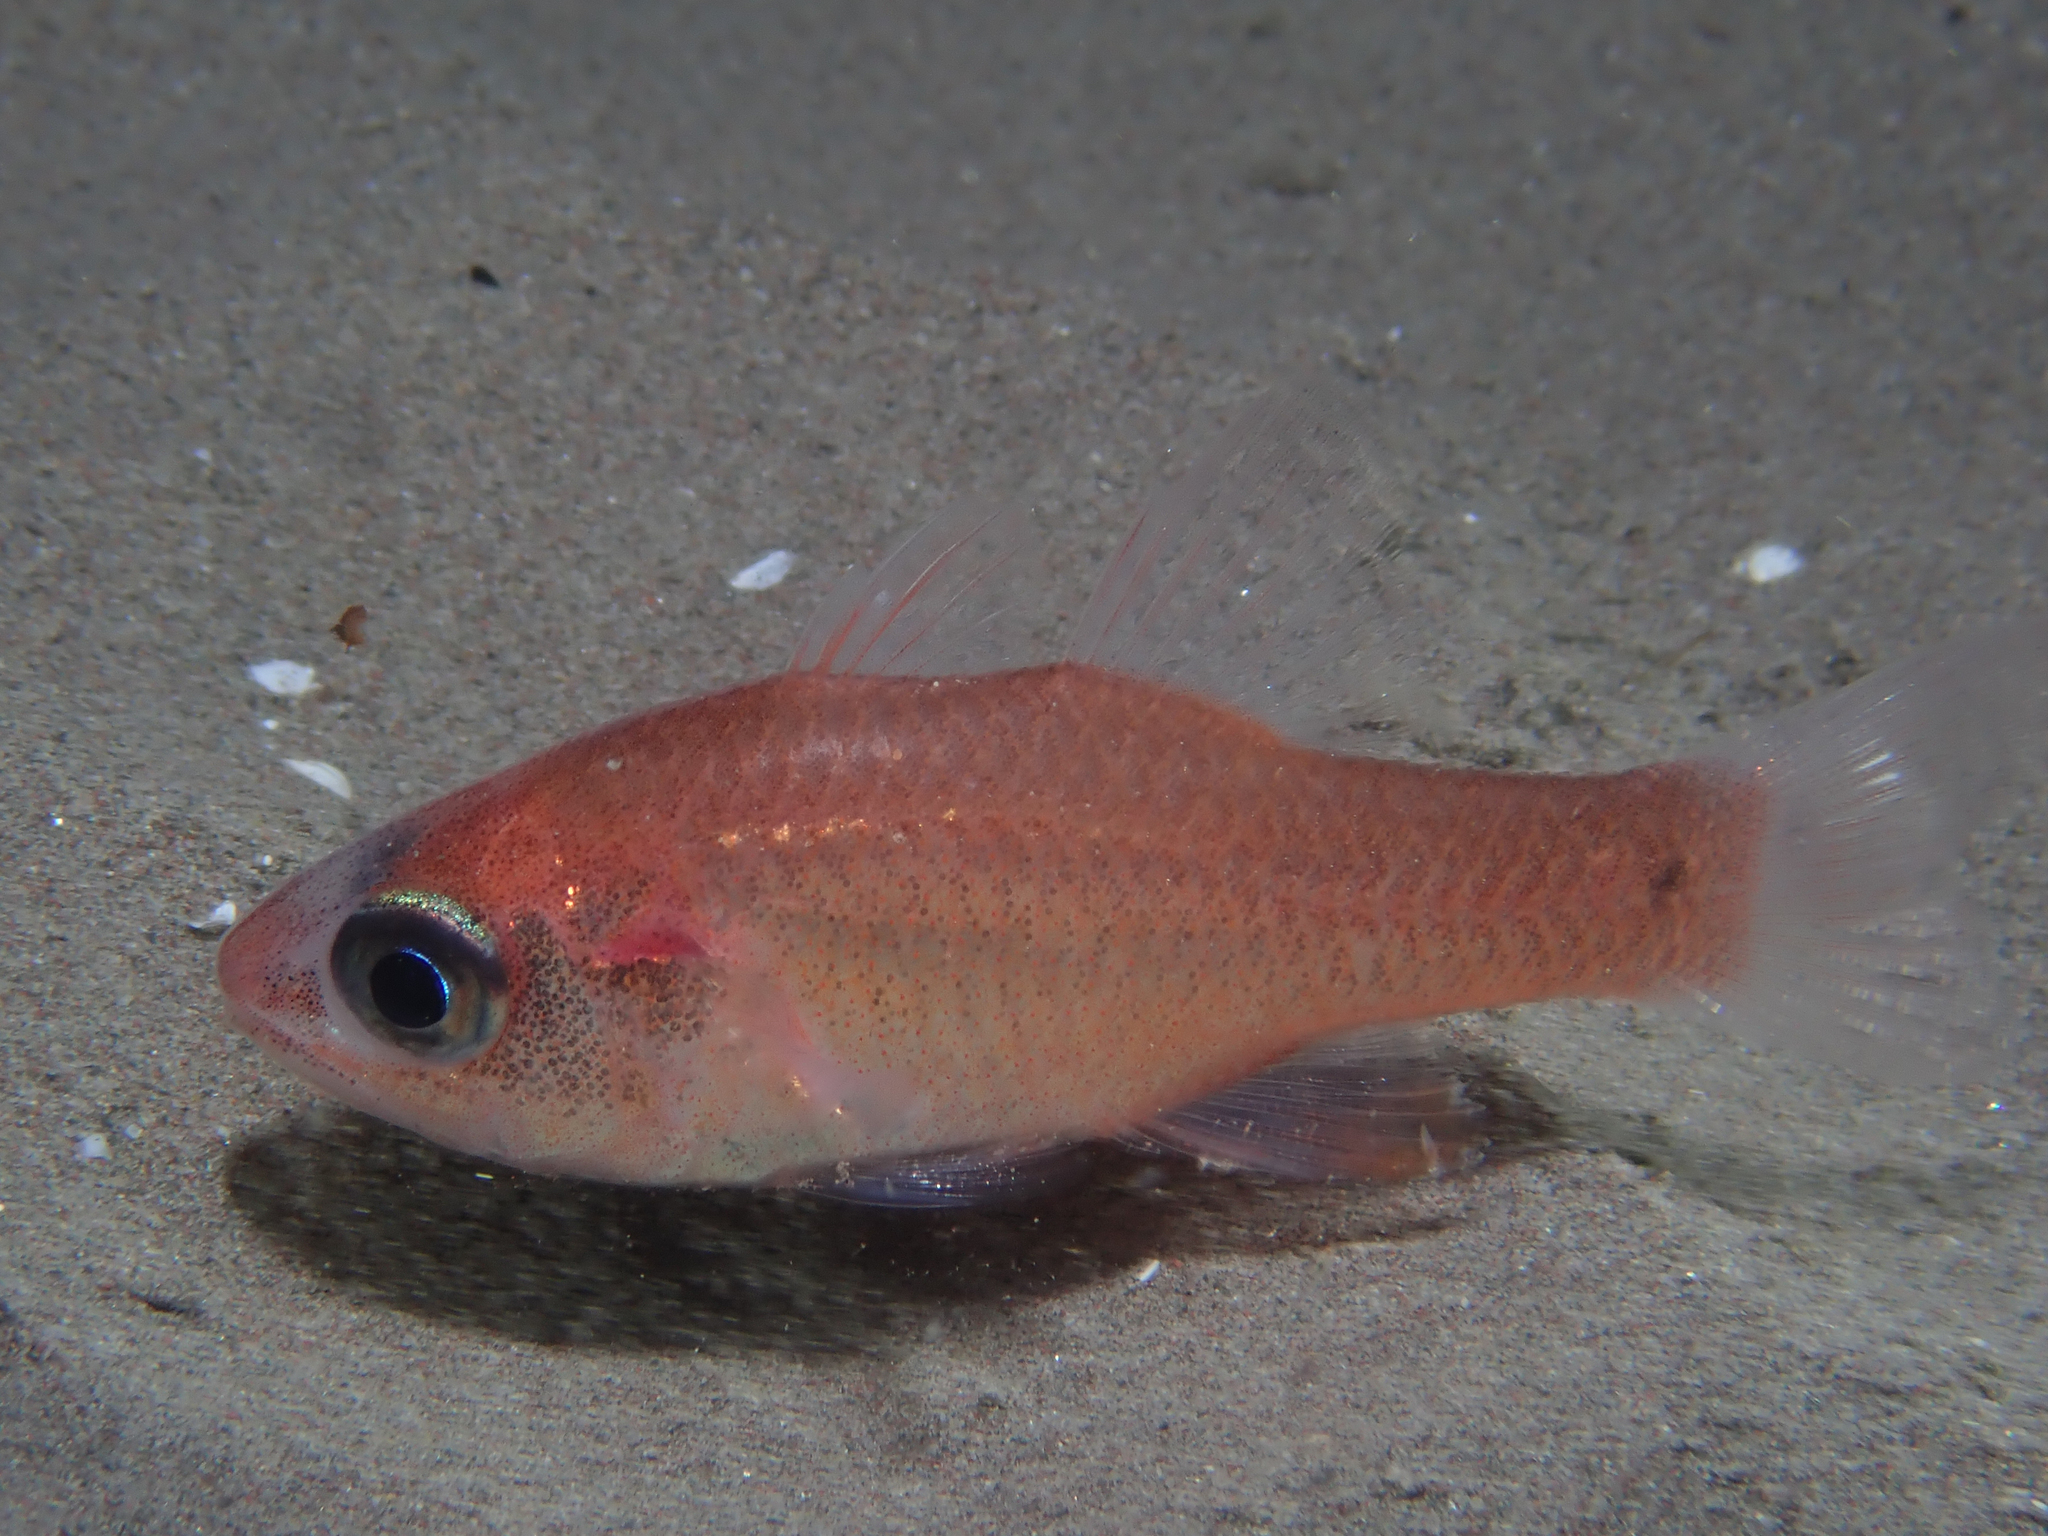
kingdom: Animalia
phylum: Chordata
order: Perciformes
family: Apogonidae
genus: Apogon
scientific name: Apogon imberbis
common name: Cardinal fish
